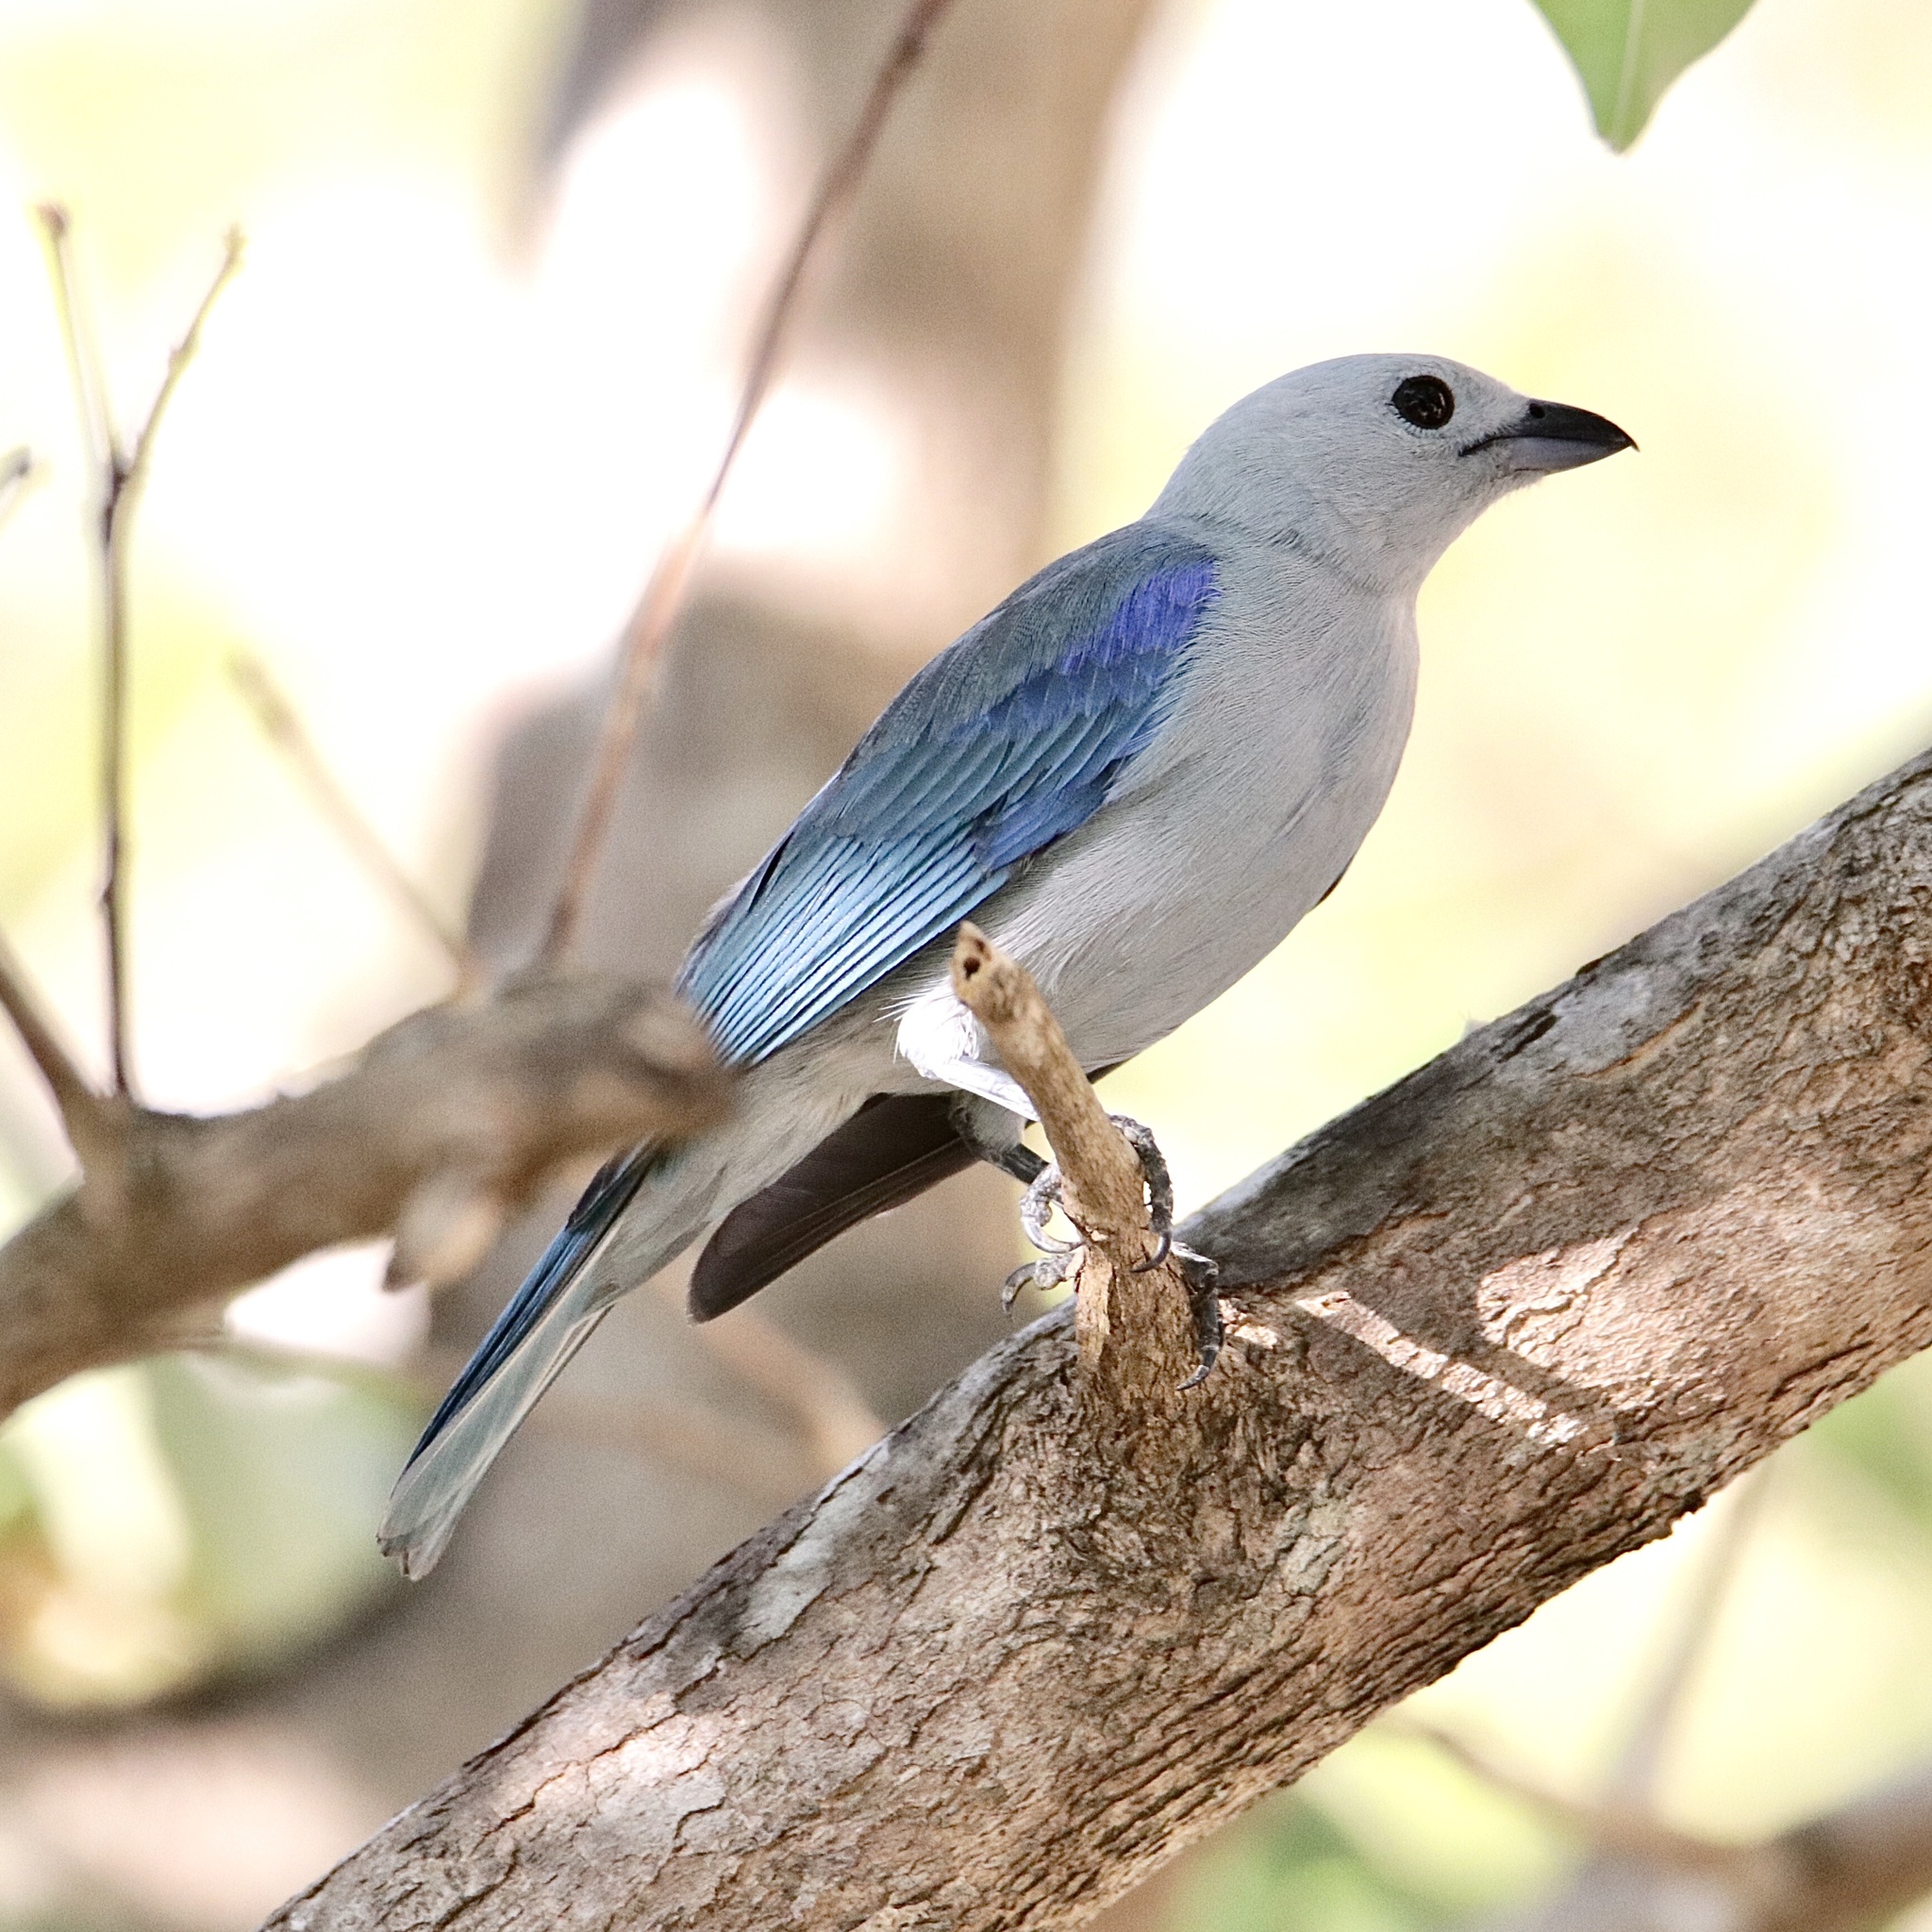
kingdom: Animalia
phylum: Chordata
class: Aves
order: Passeriformes
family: Thraupidae
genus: Thraupis
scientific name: Thraupis episcopus
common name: Blue-grey tanager
